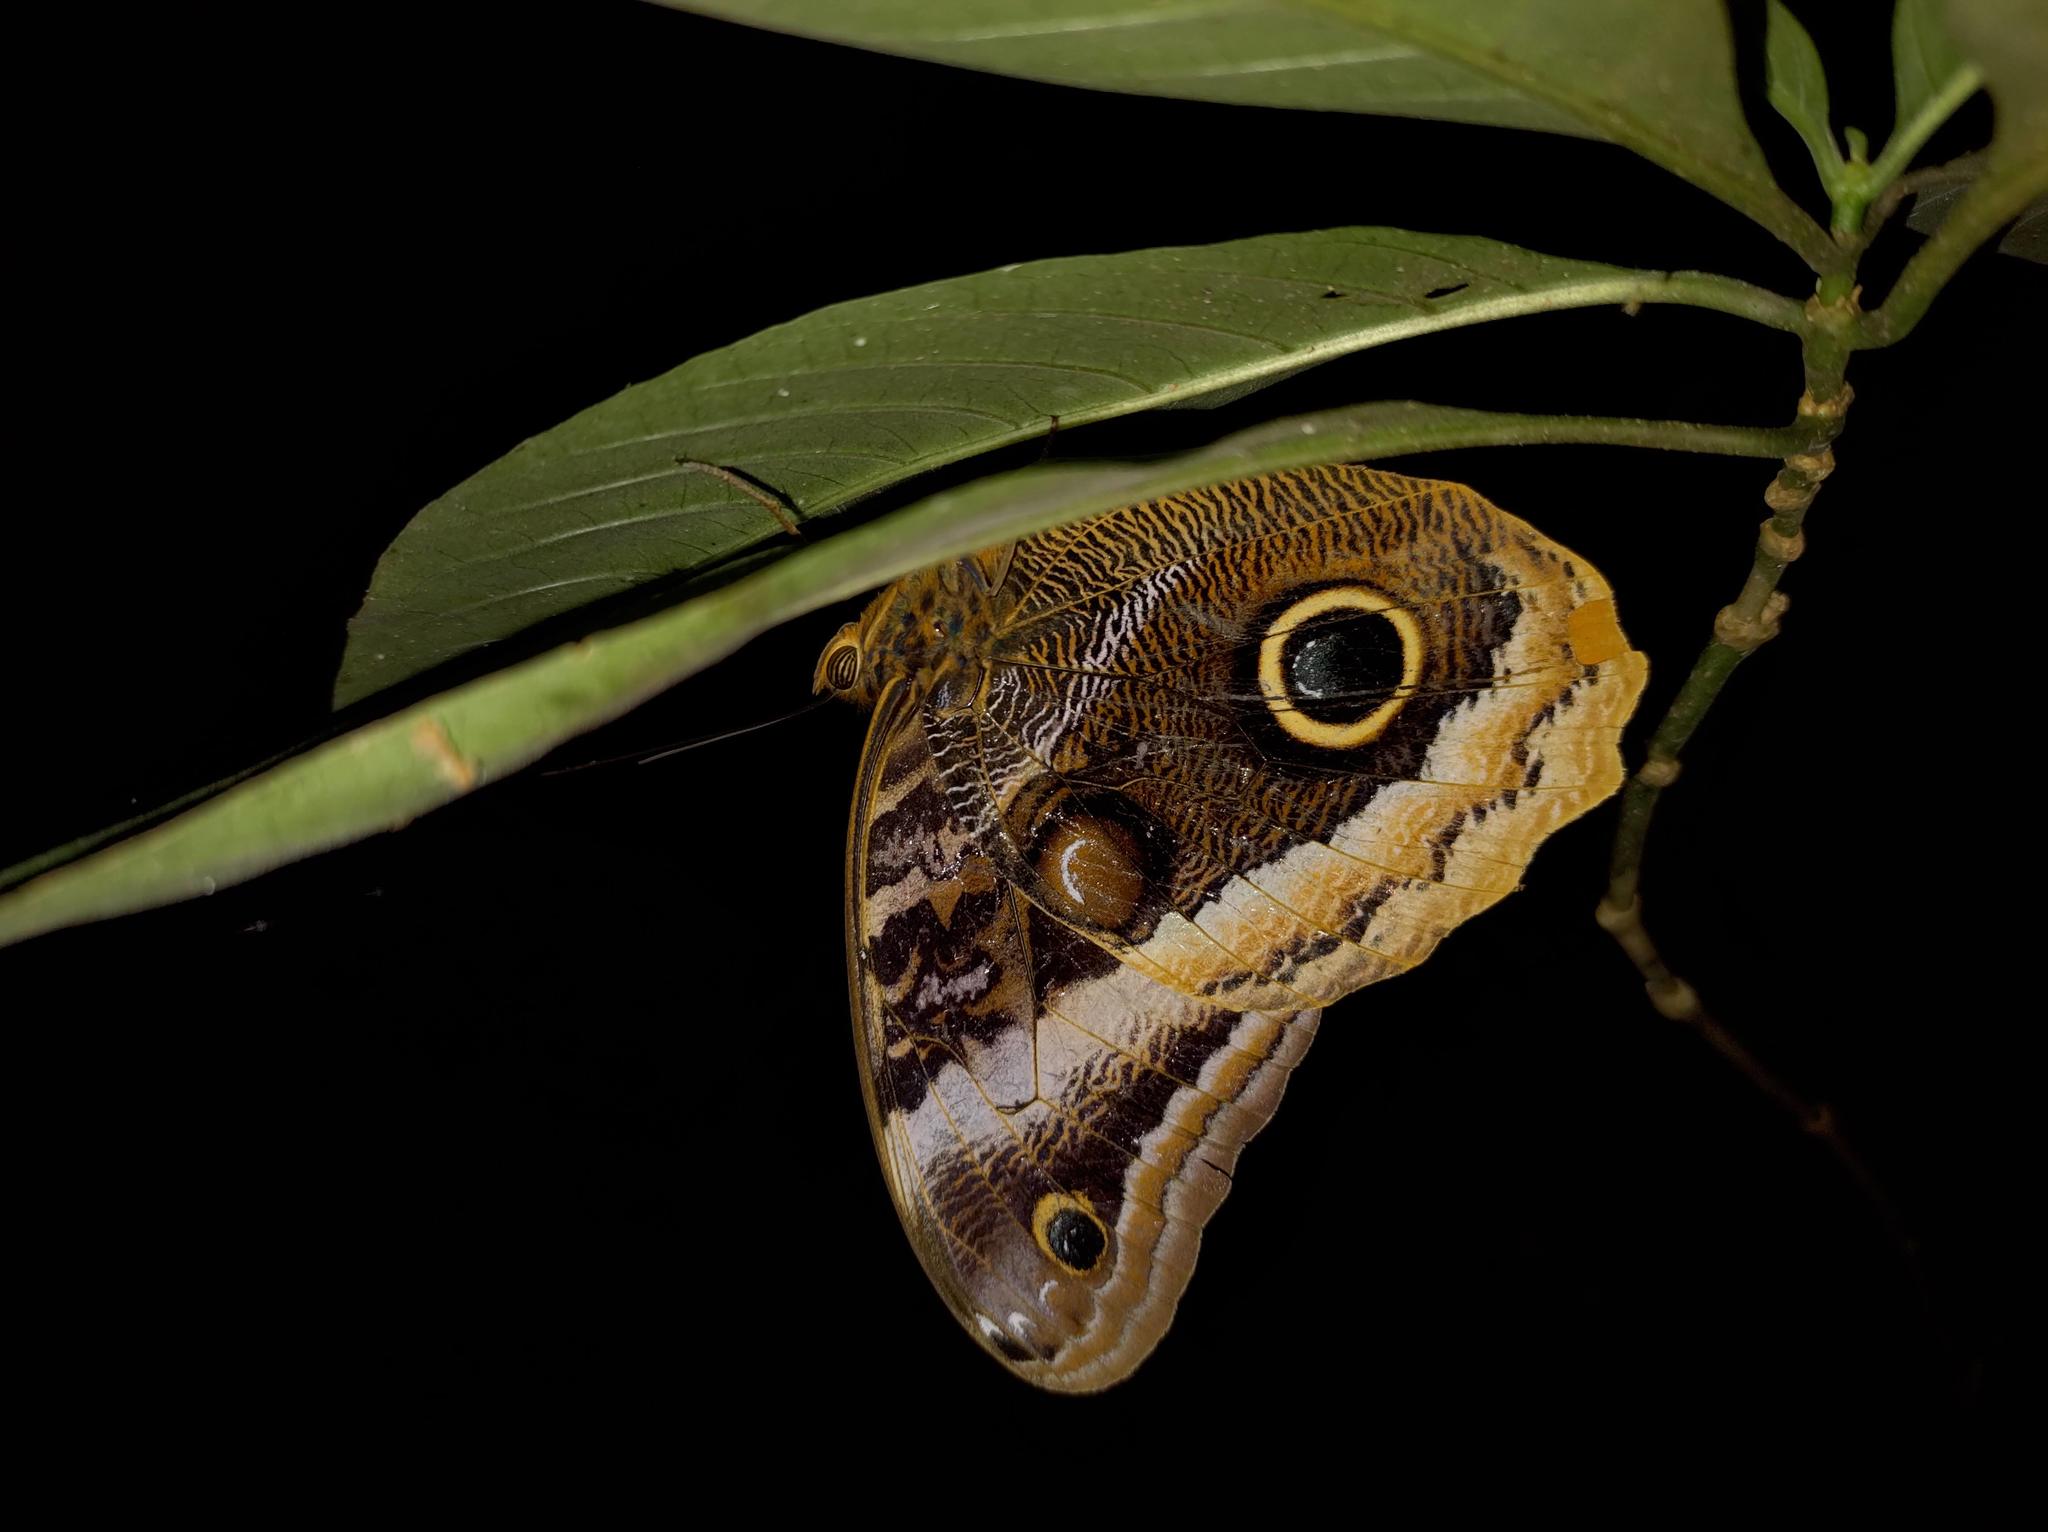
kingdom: Animalia
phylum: Arthropoda
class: Insecta
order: Lepidoptera
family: Nymphalidae
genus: Caligo
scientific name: Caligo uranus
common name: Gold-edged owl-butterfly
